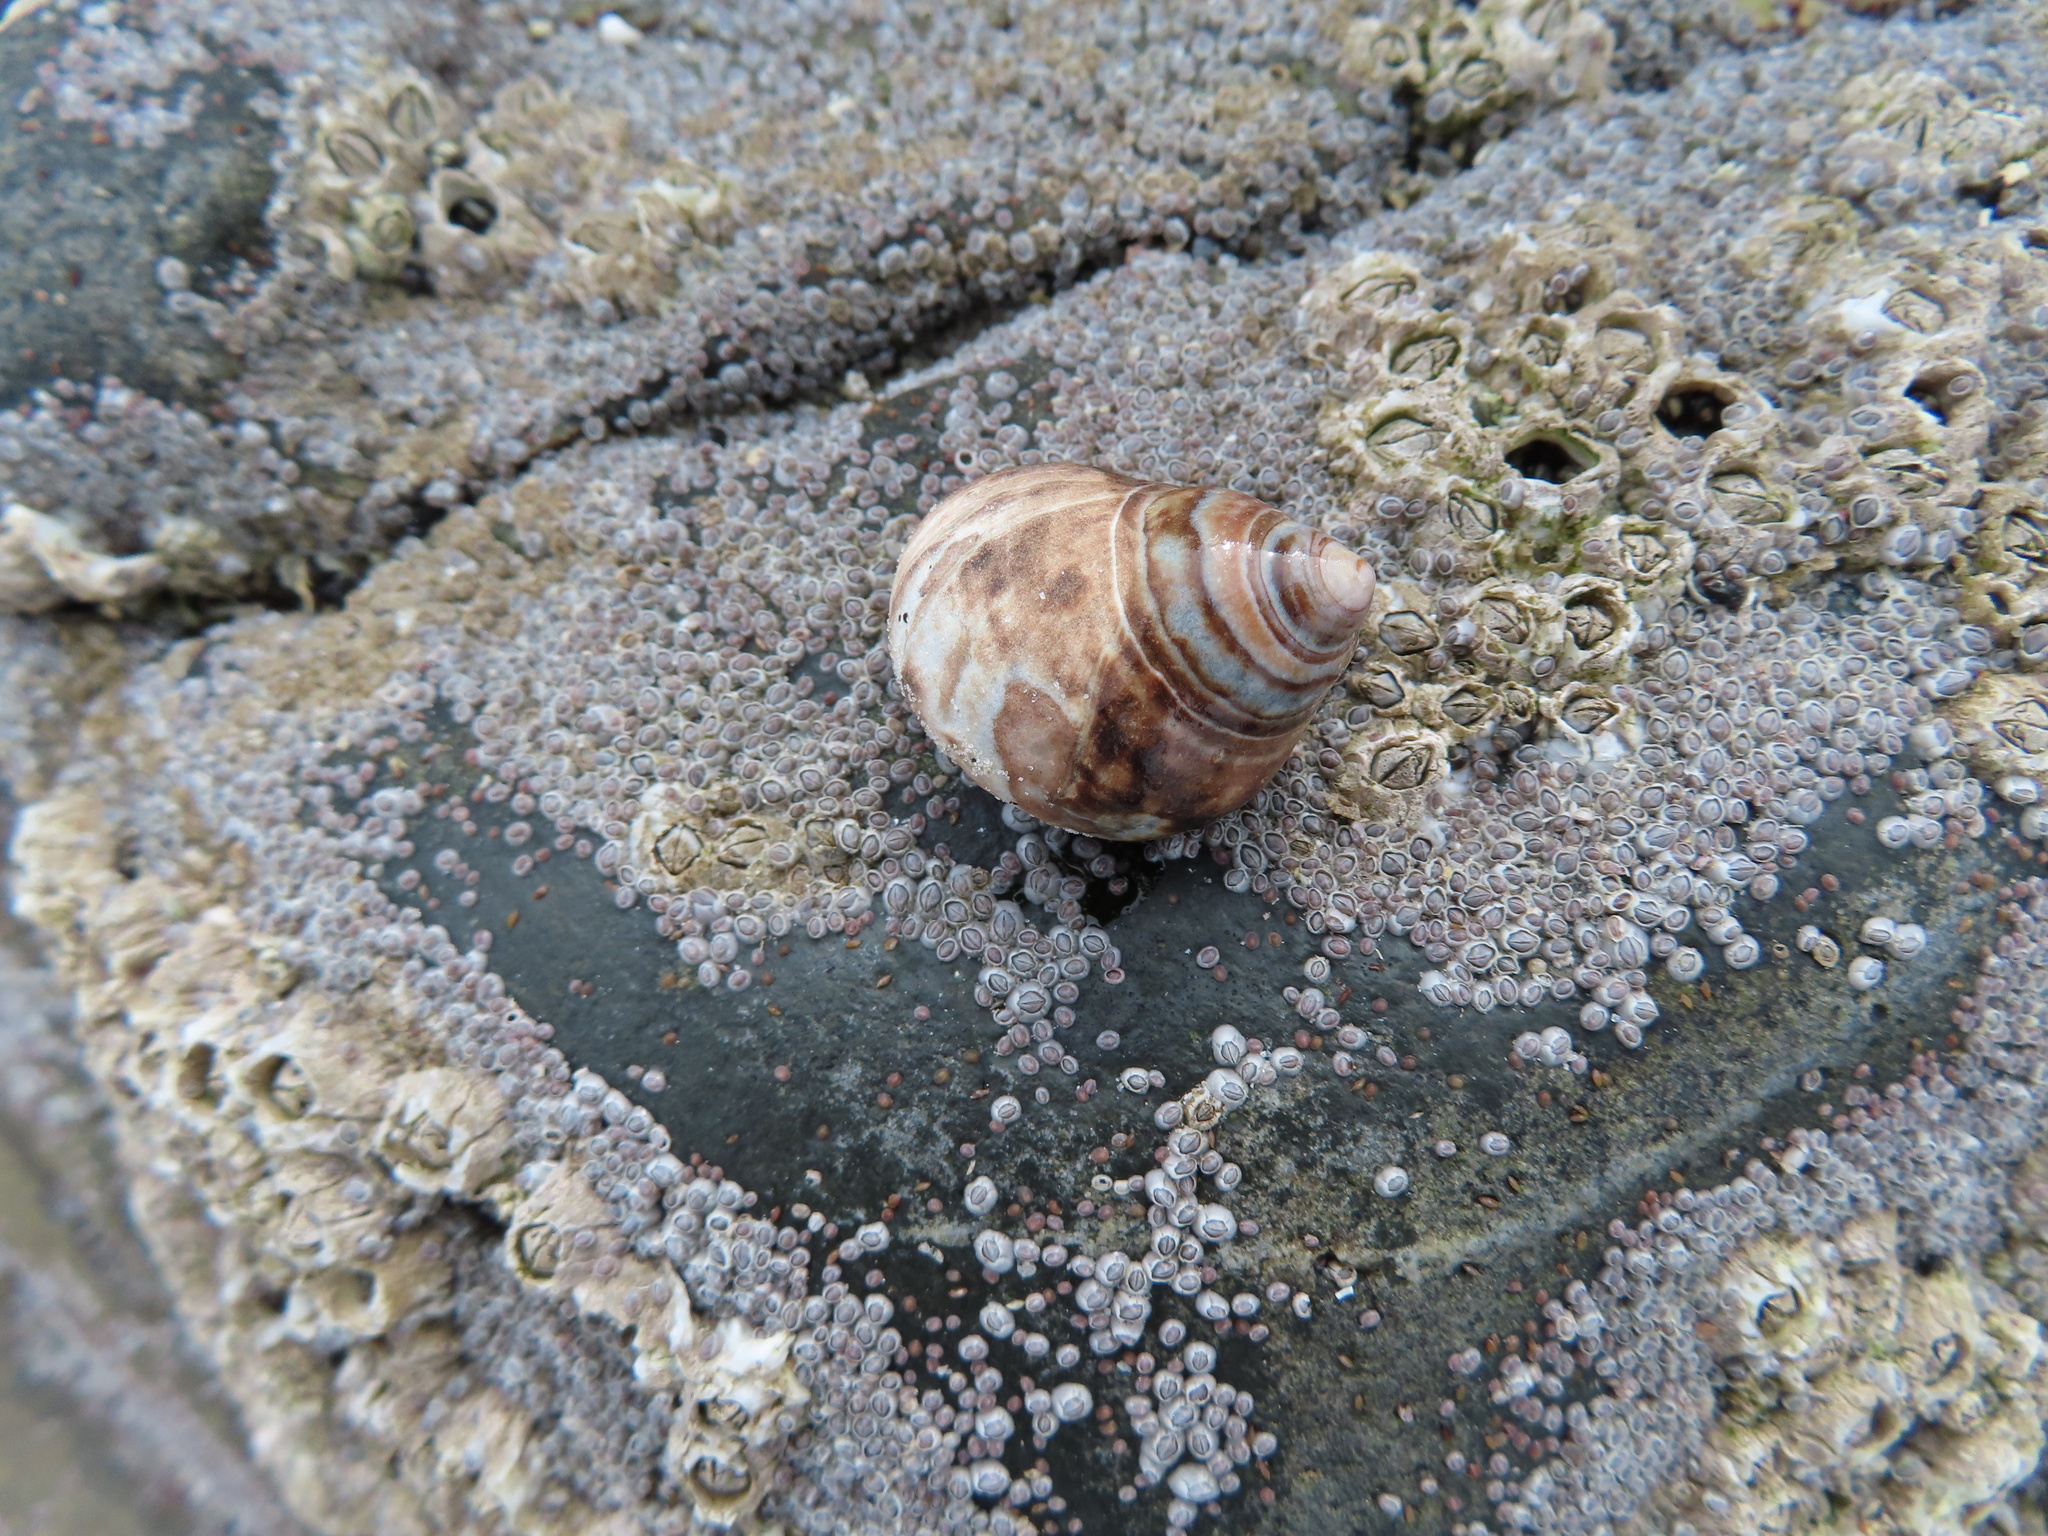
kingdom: Animalia
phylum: Mollusca
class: Gastropoda
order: Littorinimorpha
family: Littorinidae
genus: Littorina
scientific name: Littorina littorea
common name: Common periwinkle
